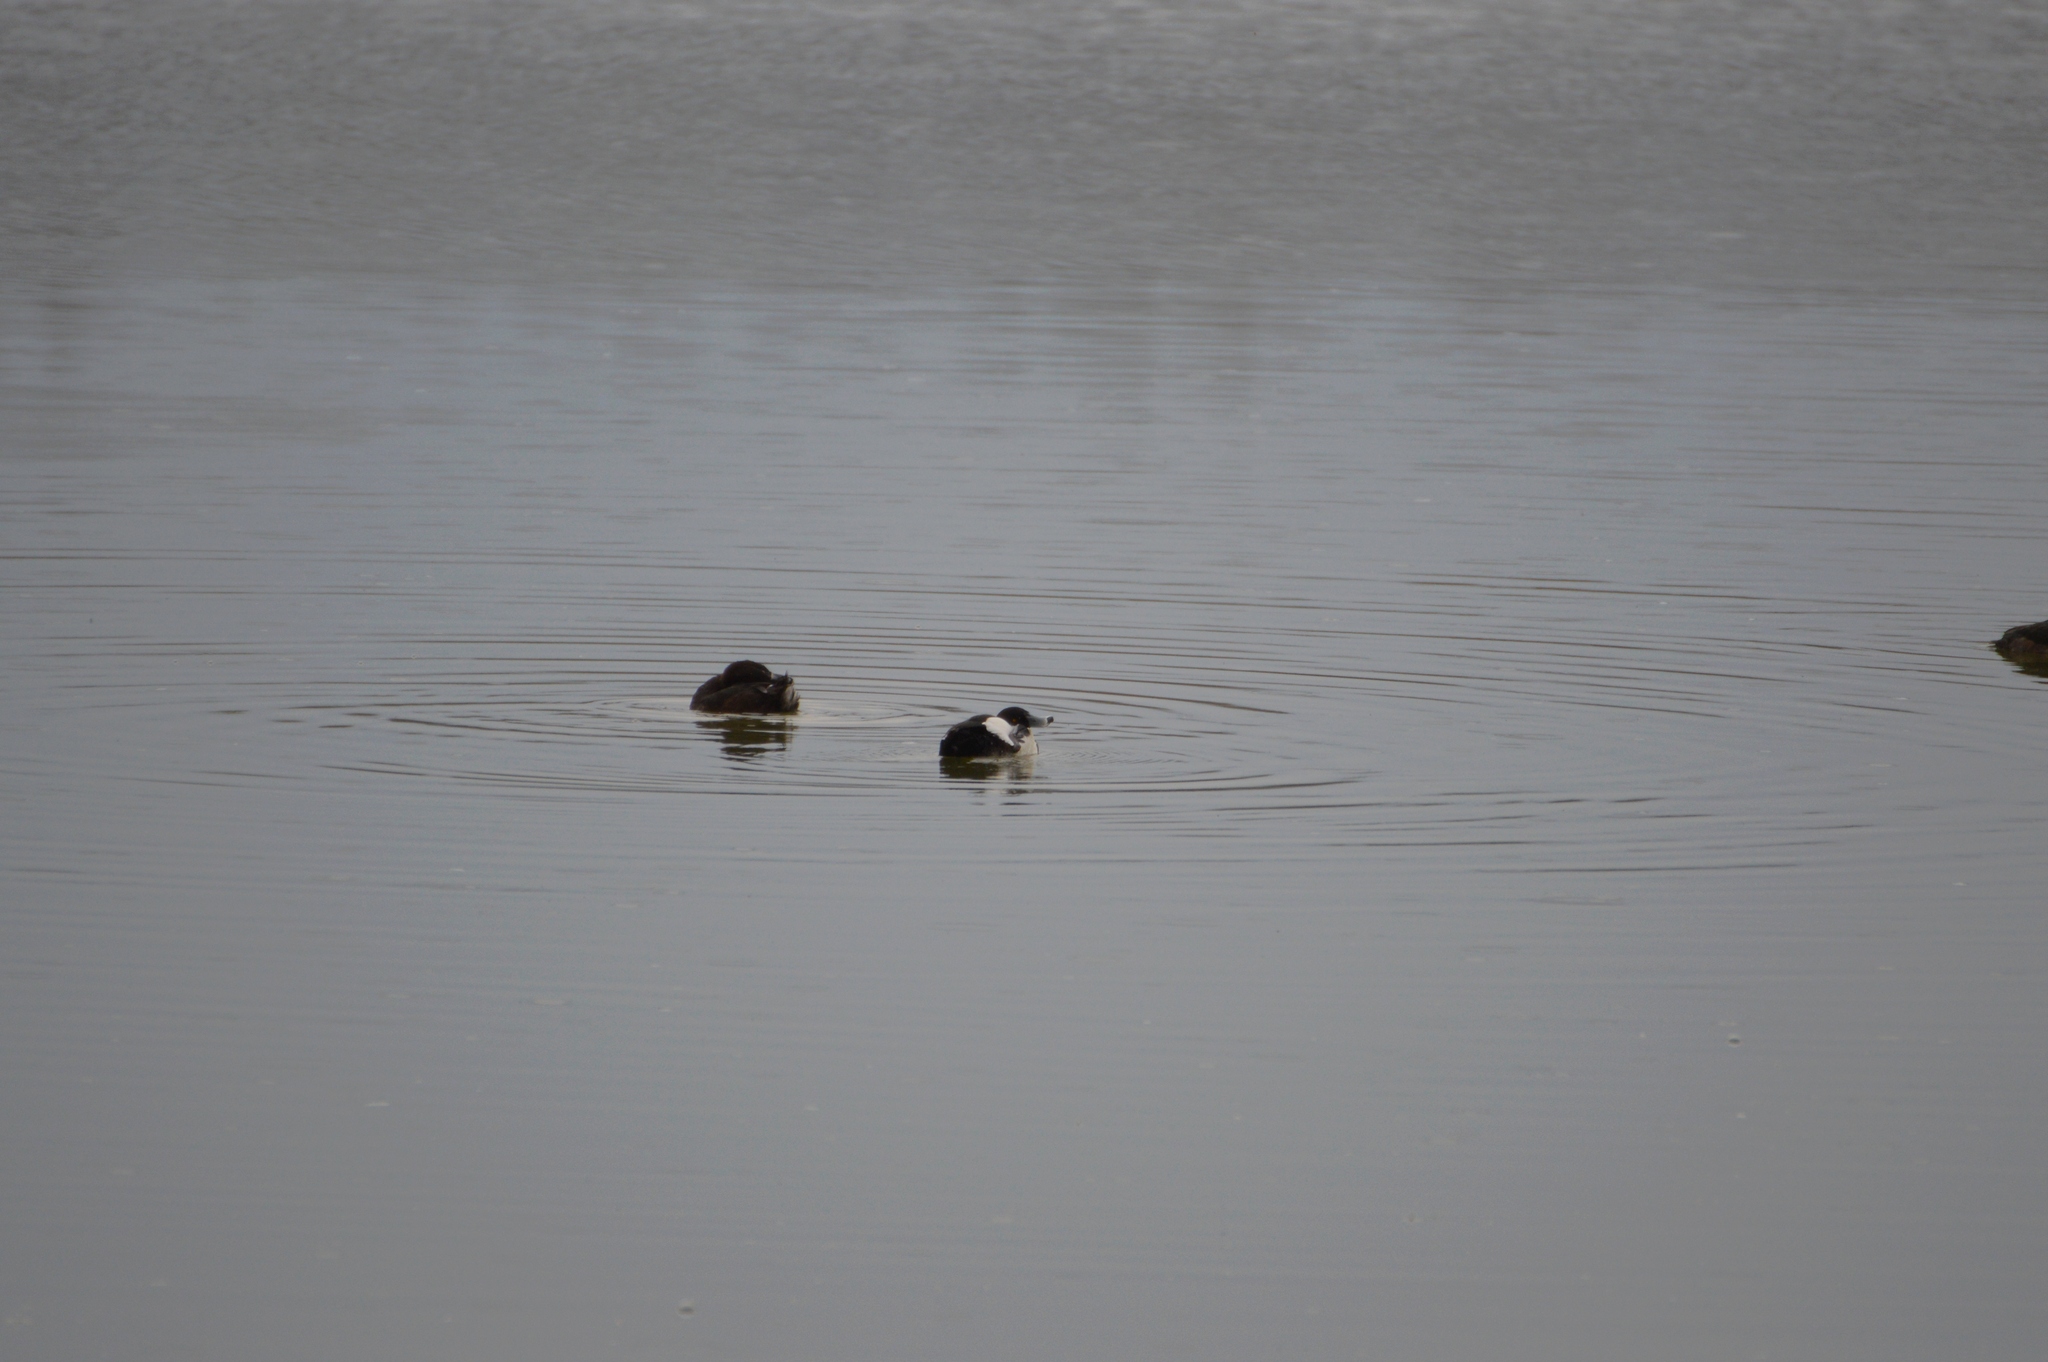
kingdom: Animalia
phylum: Chordata
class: Aves
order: Anseriformes
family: Anatidae
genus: Aythya
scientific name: Aythya fuligula
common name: Tufted duck
